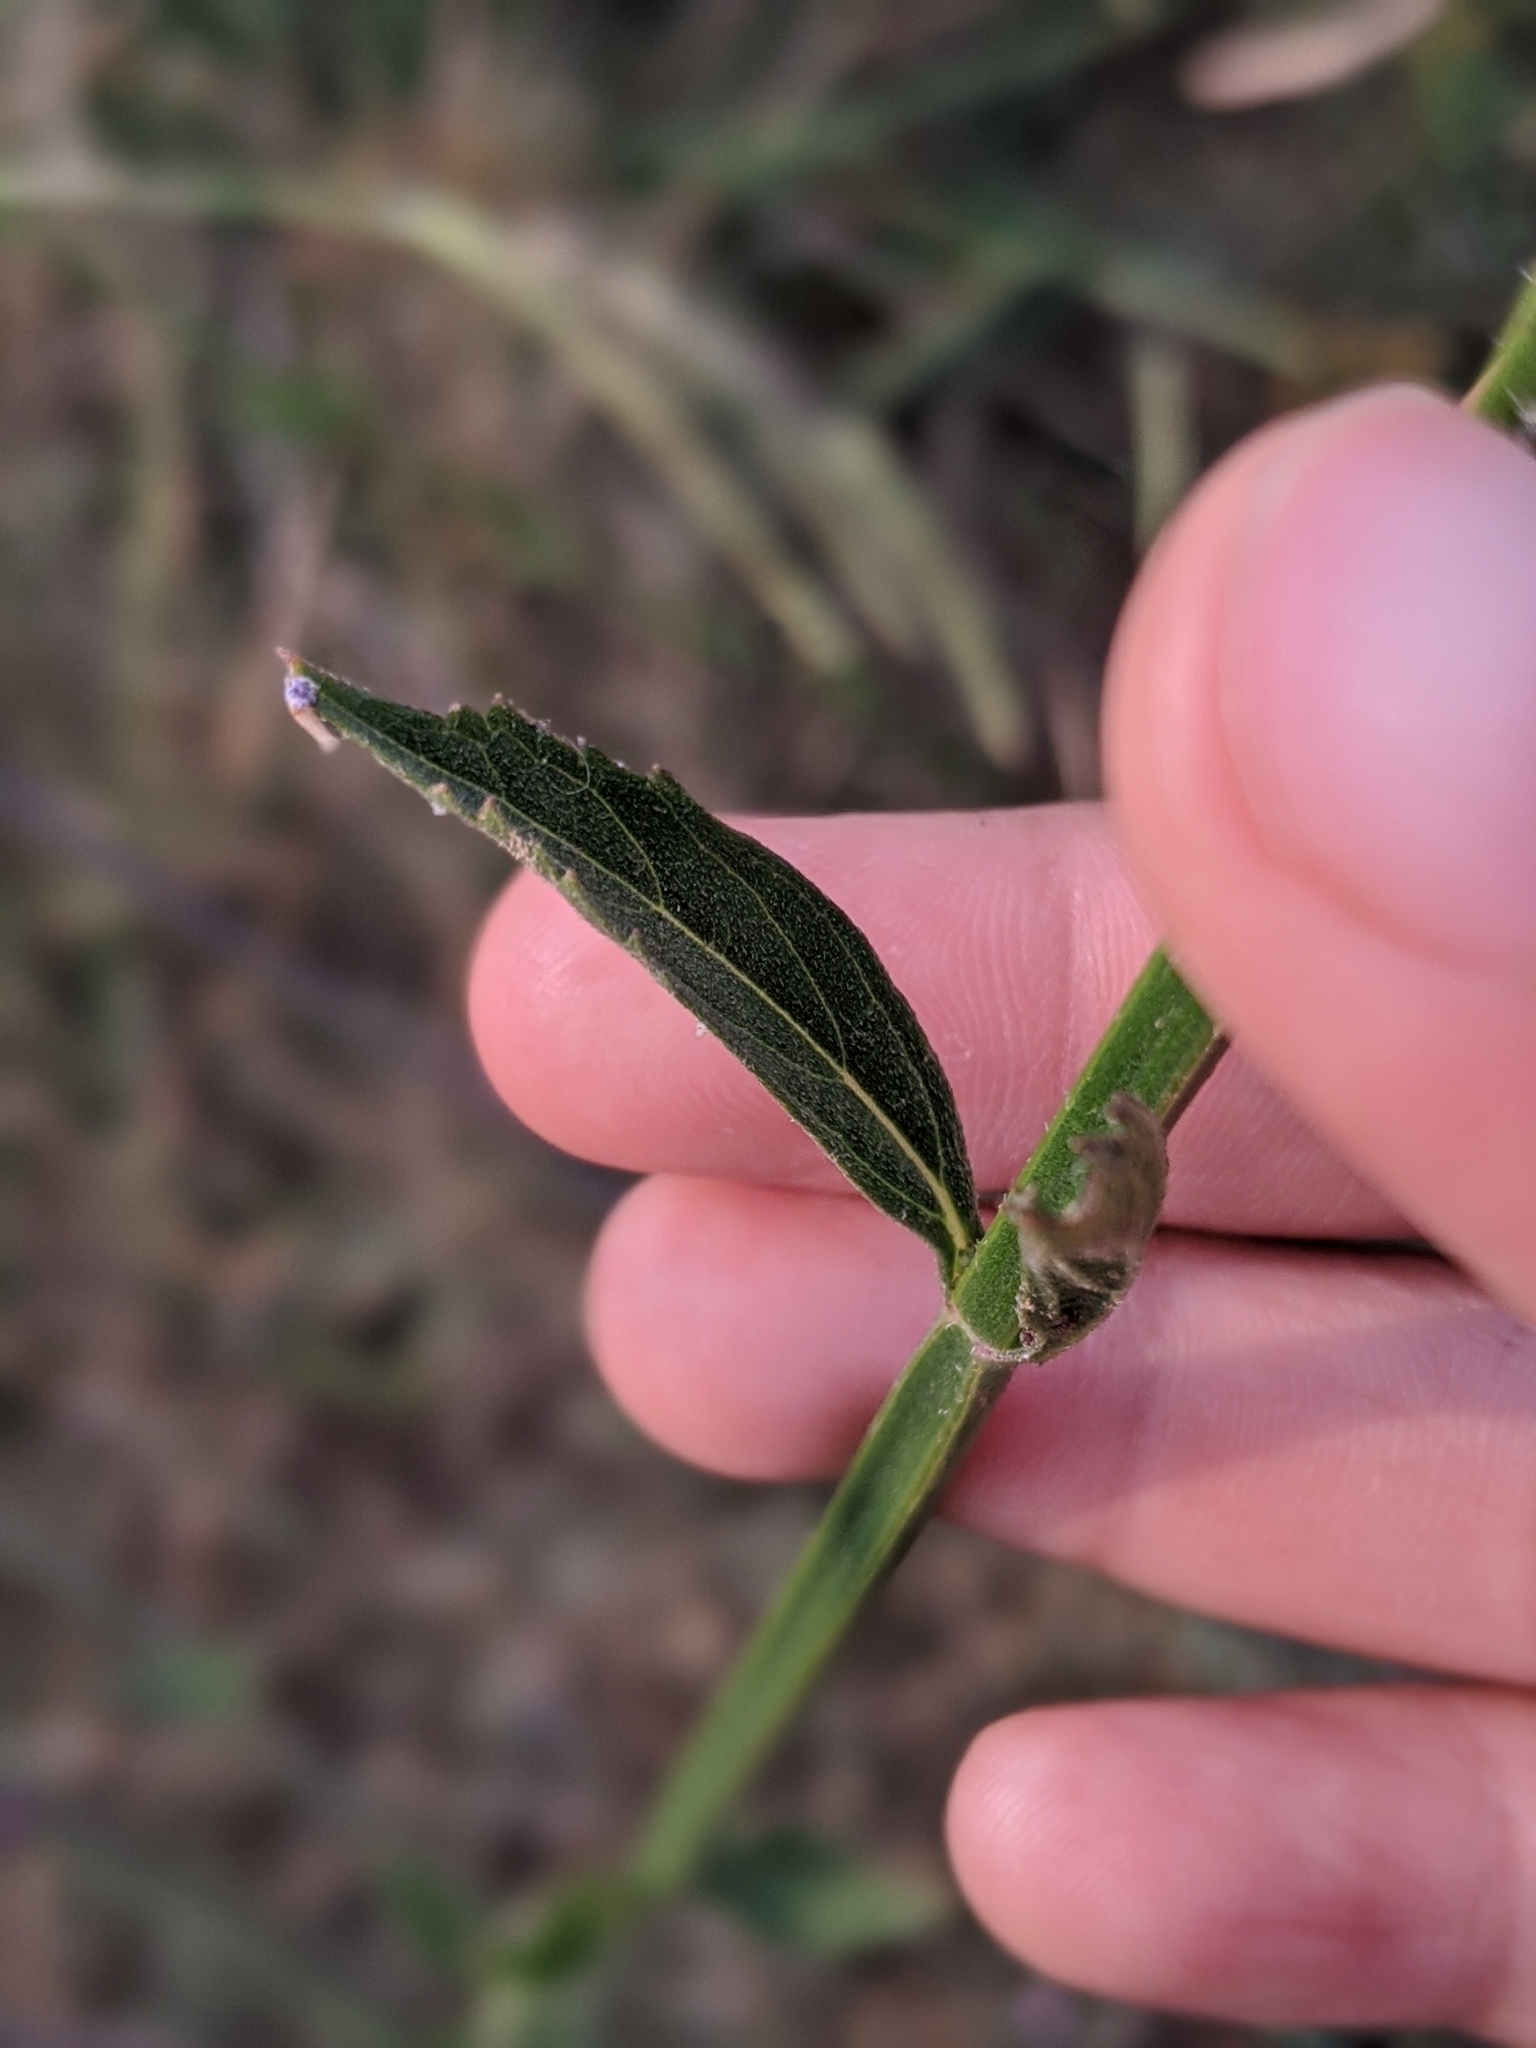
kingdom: Plantae
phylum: Tracheophyta
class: Magnoliopsida
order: Lamiales
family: Verbenaceae
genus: Verbena
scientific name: Verbena brasiliensis
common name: Brazilian vervain
